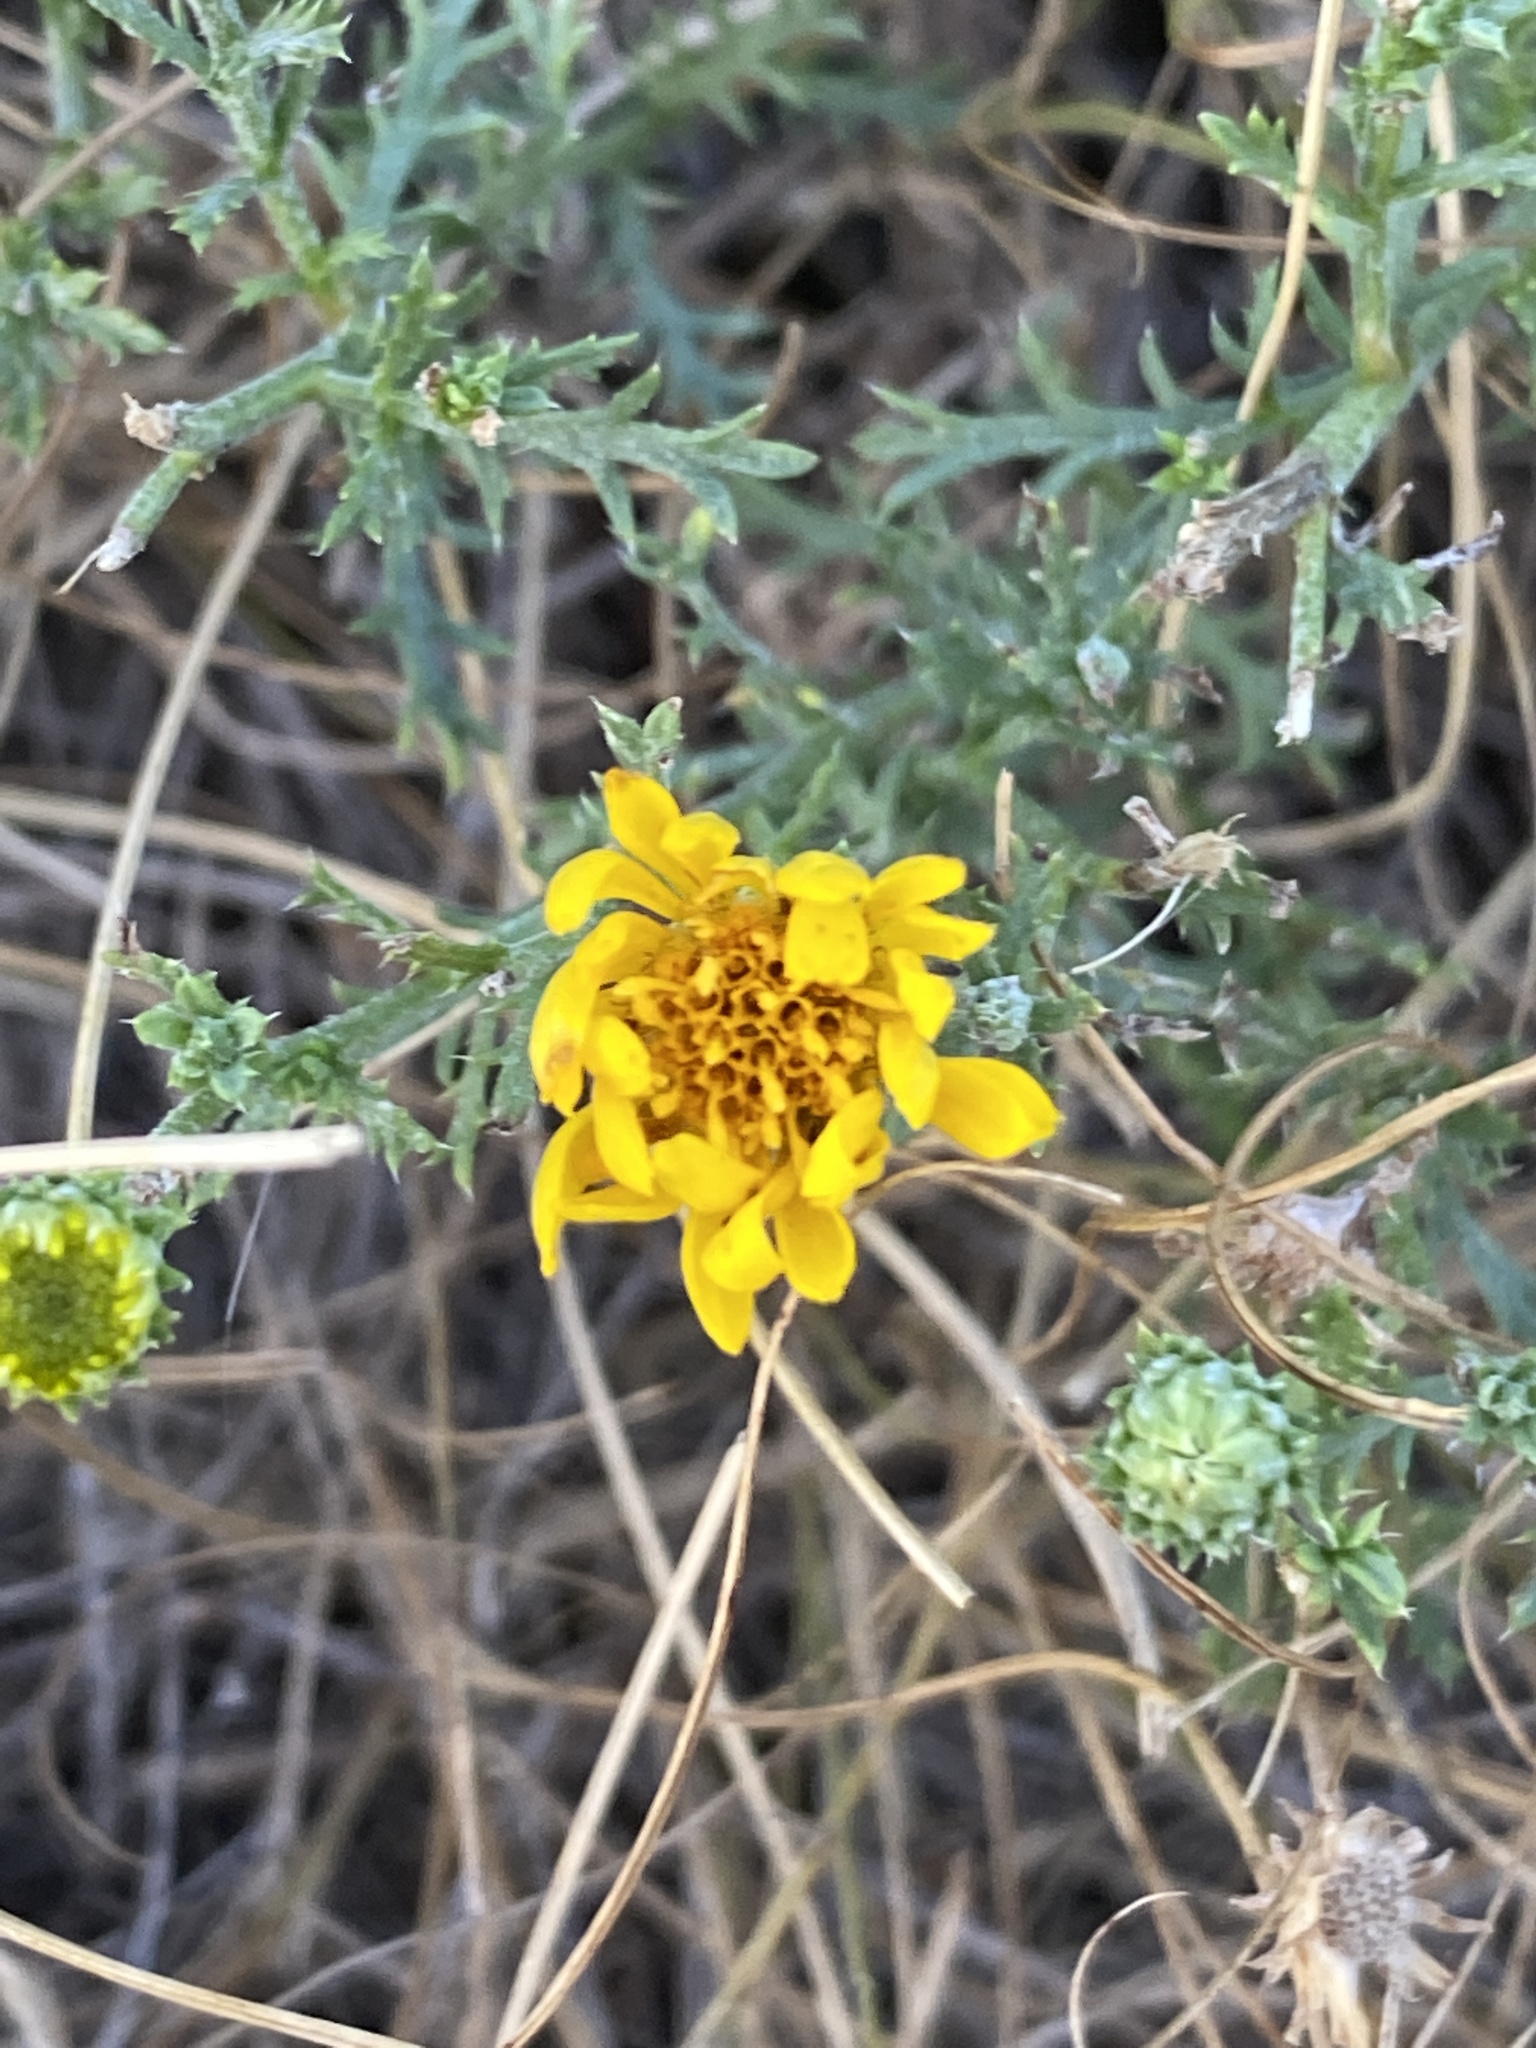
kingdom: Plantae
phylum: Tracheophyta
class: Magnoliopsida
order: Asterales
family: Asteraceae
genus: Xanthisma
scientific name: Xanthisma spinulosum
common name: Spiny goldenweed
